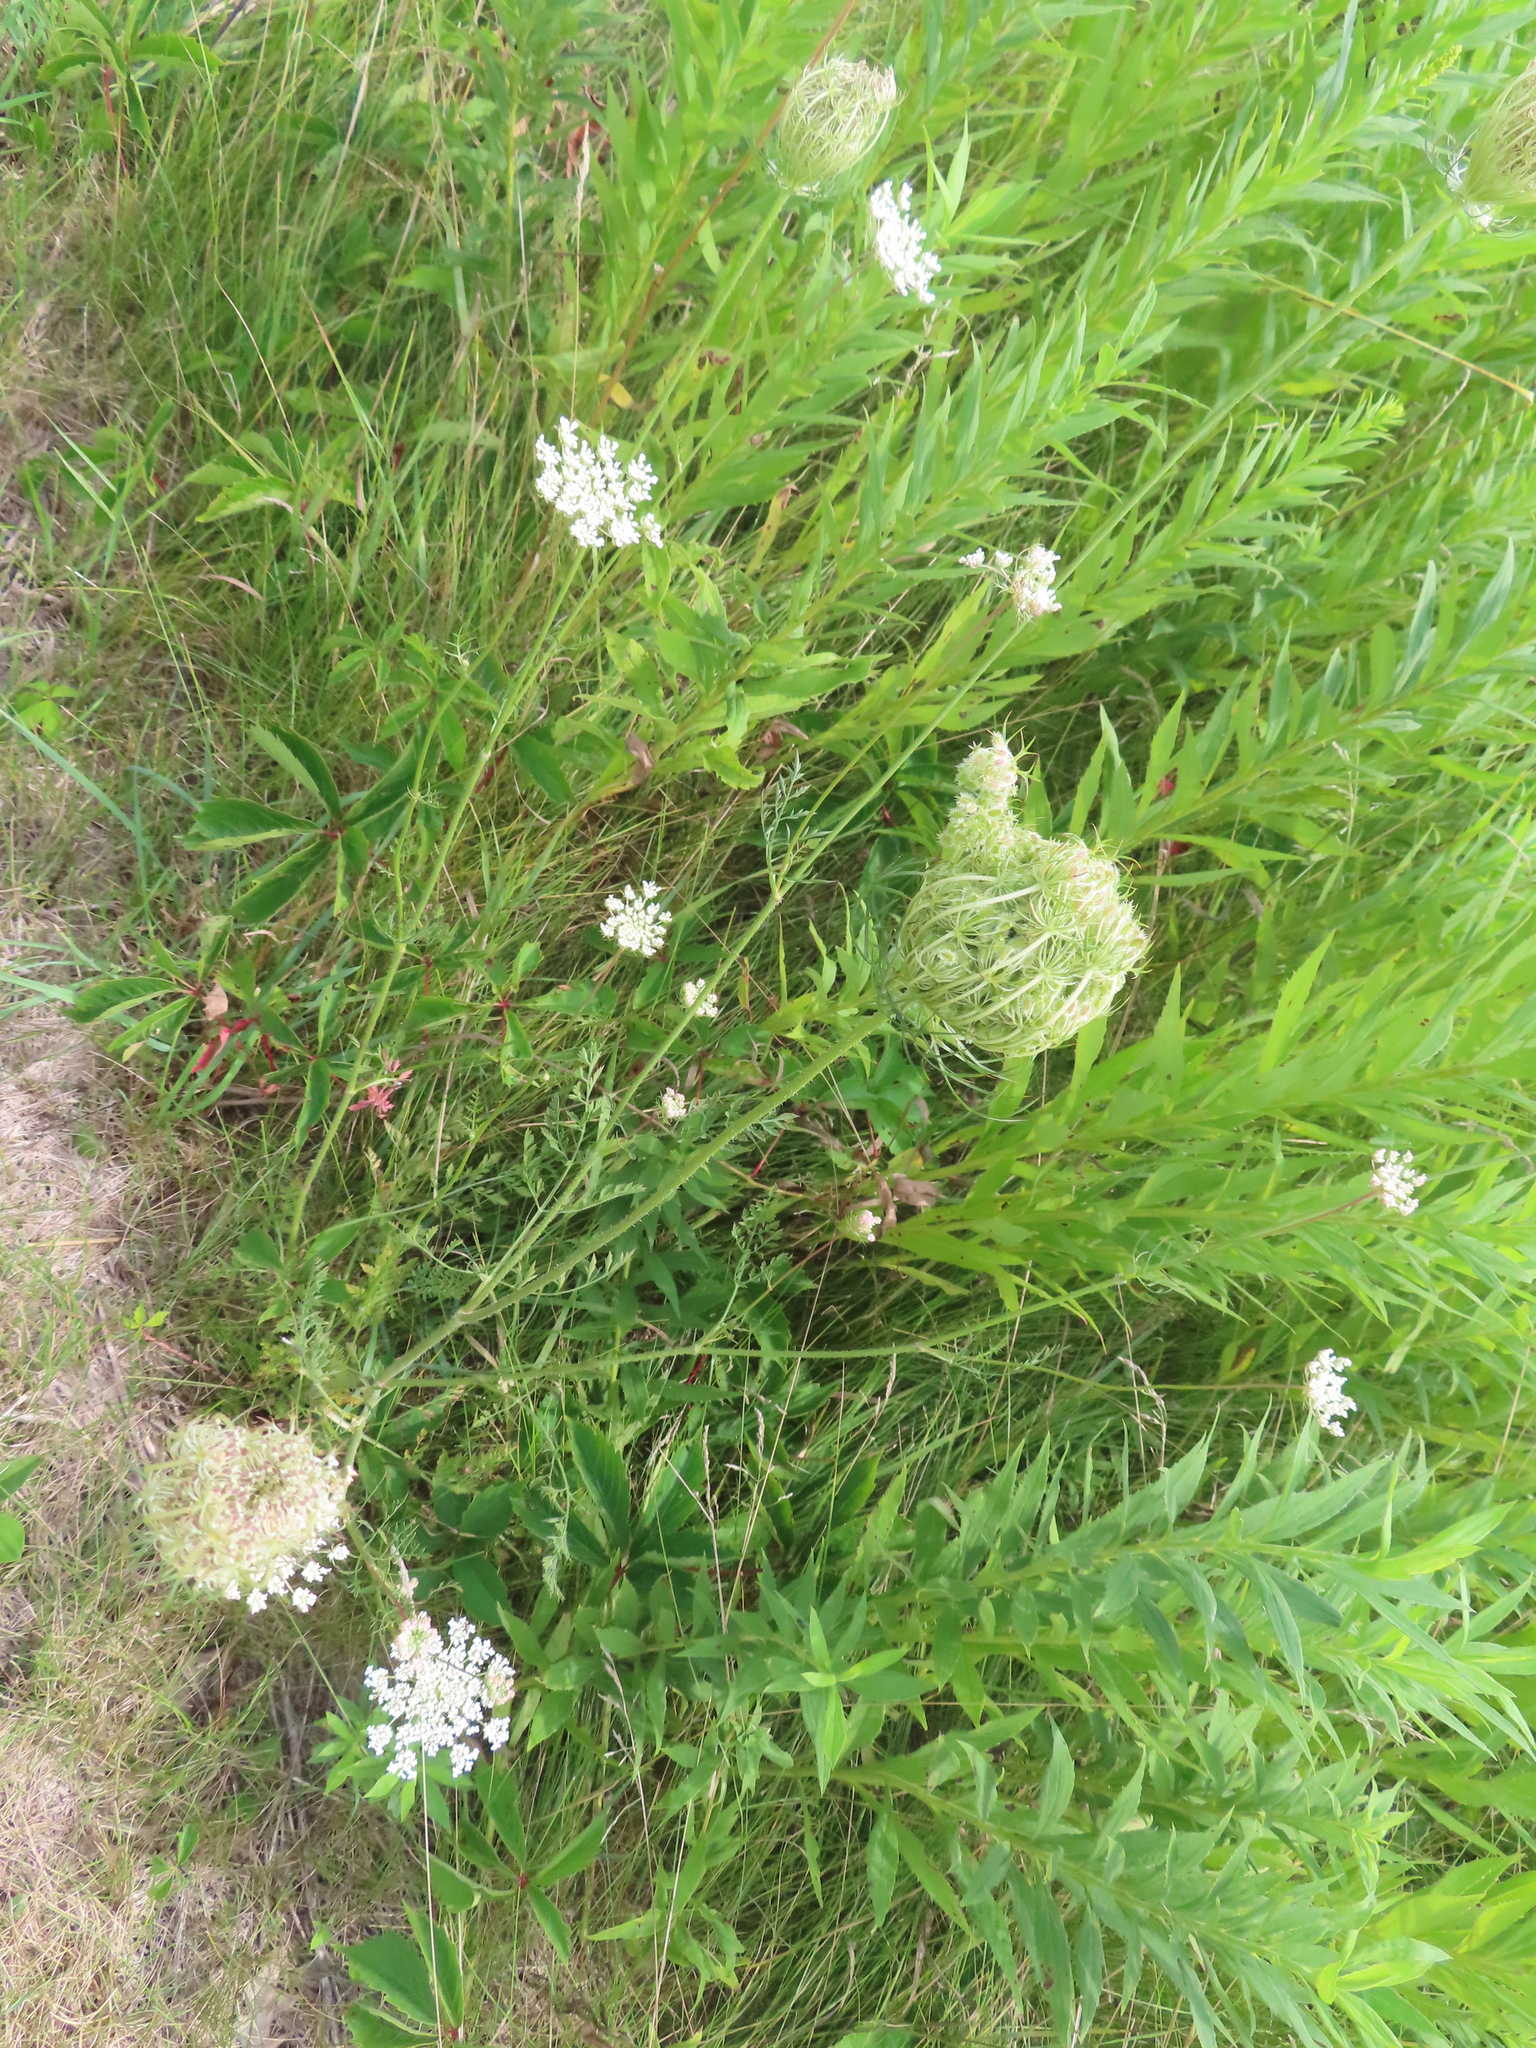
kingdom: Plantae
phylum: Tracheophyta
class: Magnoliopsida
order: Apiales
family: Apiaceae
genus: Daucus
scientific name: Daucus carota
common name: Wild carrot
